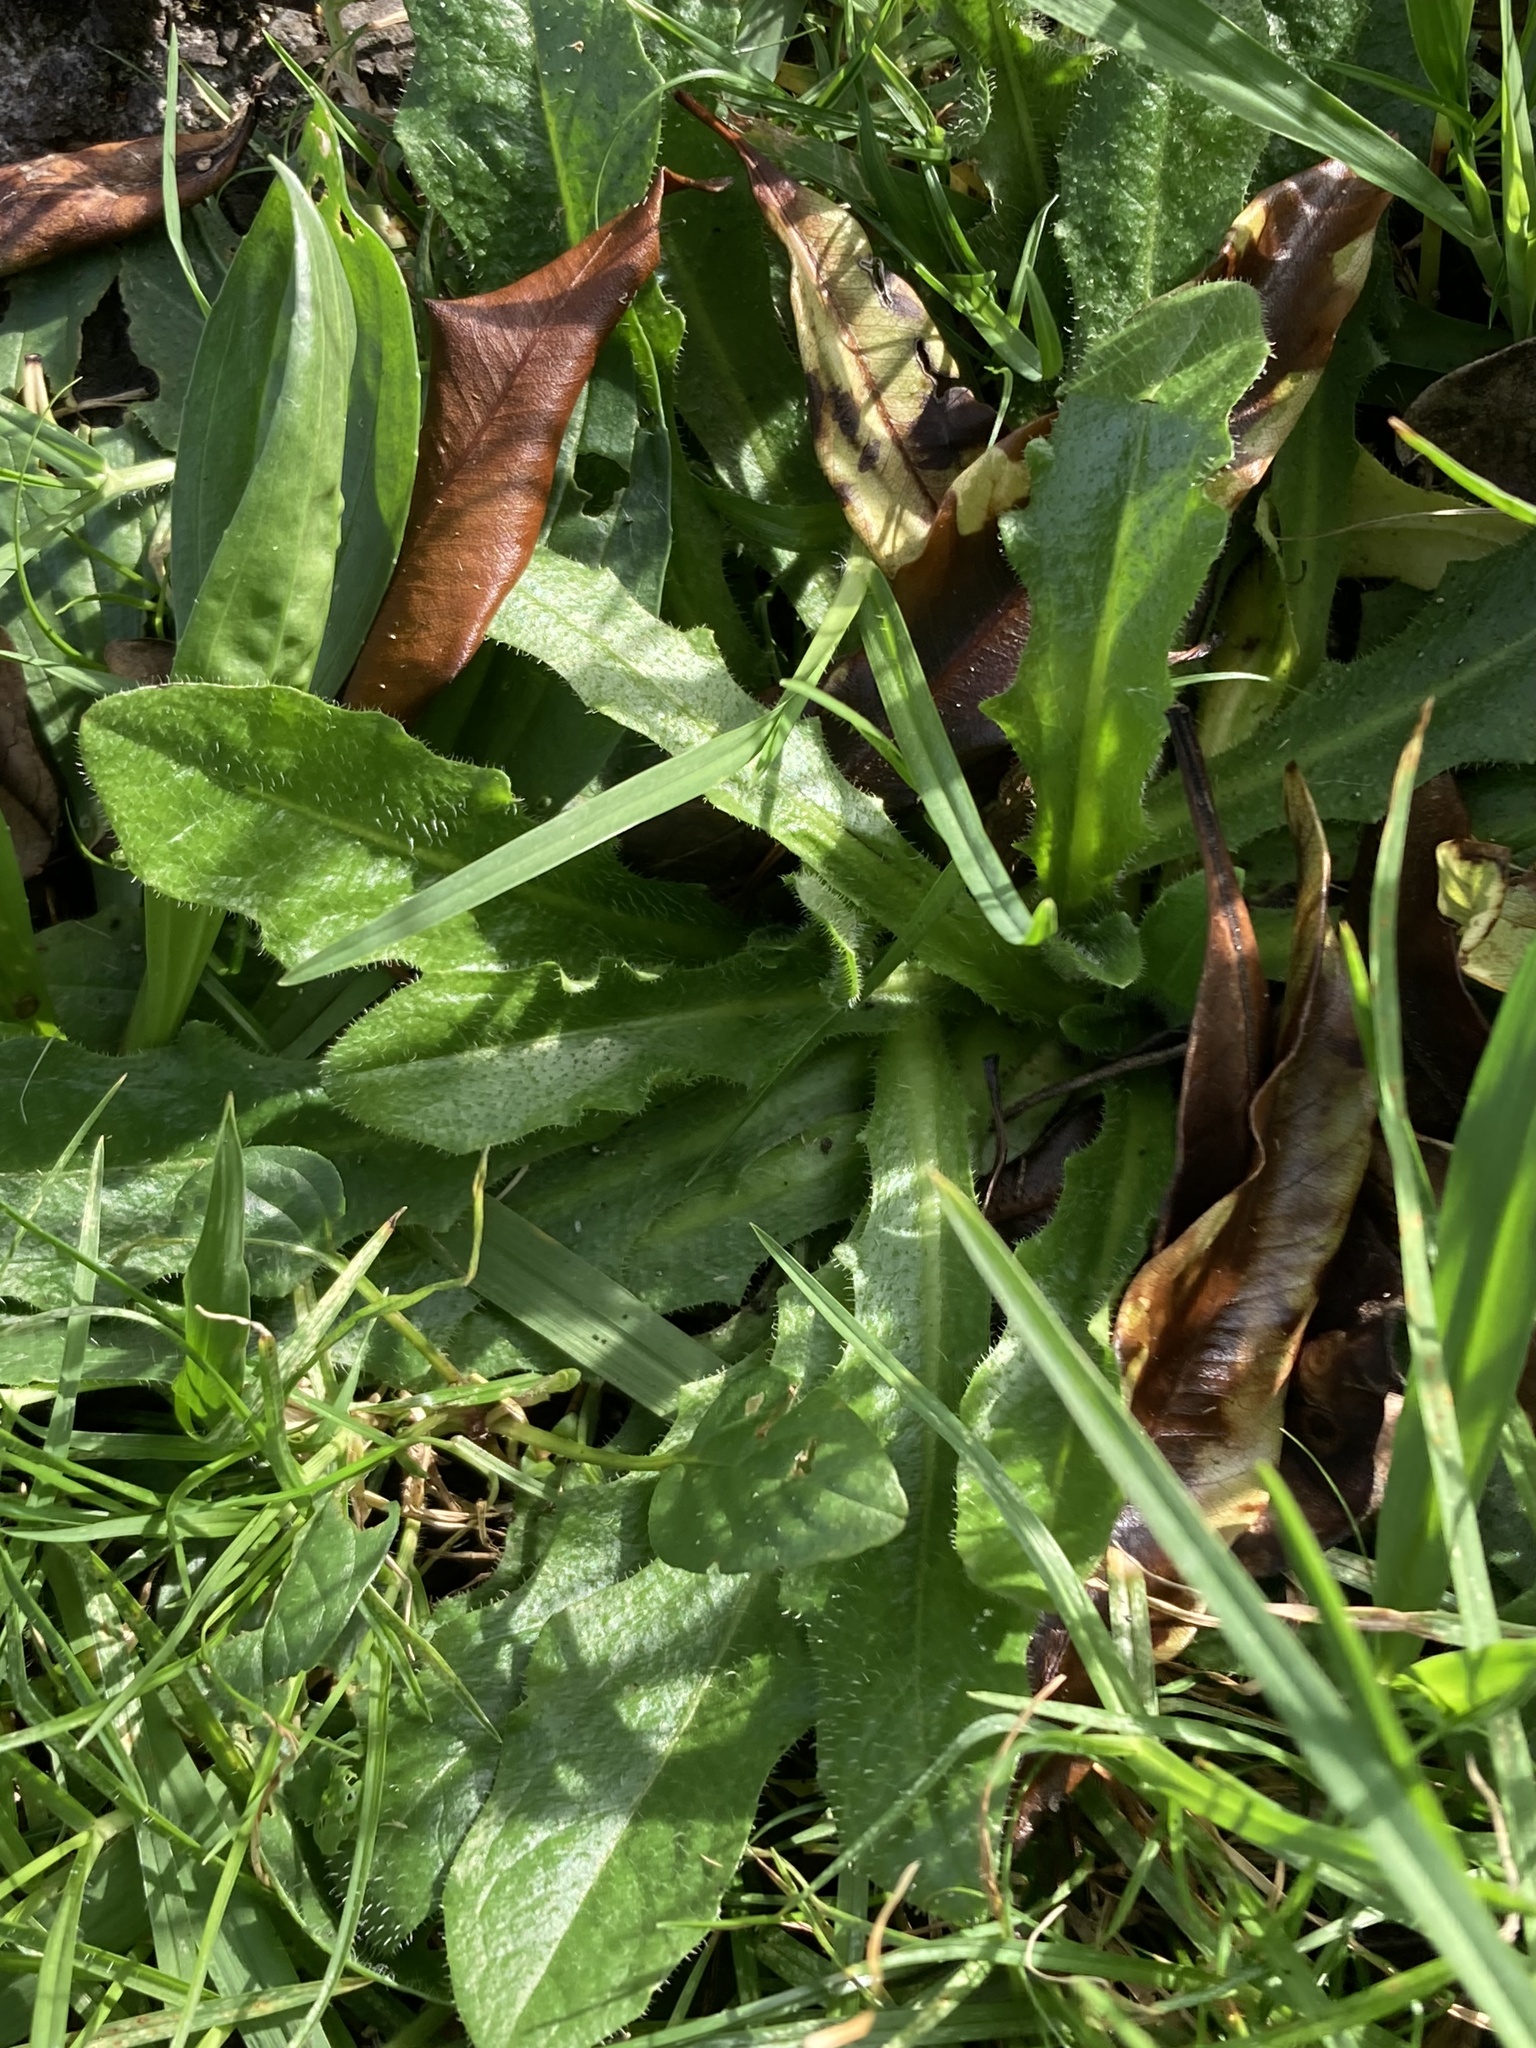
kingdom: Plantae
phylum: Tracheophyta
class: Magnoliopsida
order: Asterales
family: Asteraceae
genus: Hypochaeris
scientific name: Hypochaeris radicata
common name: Flatweed
